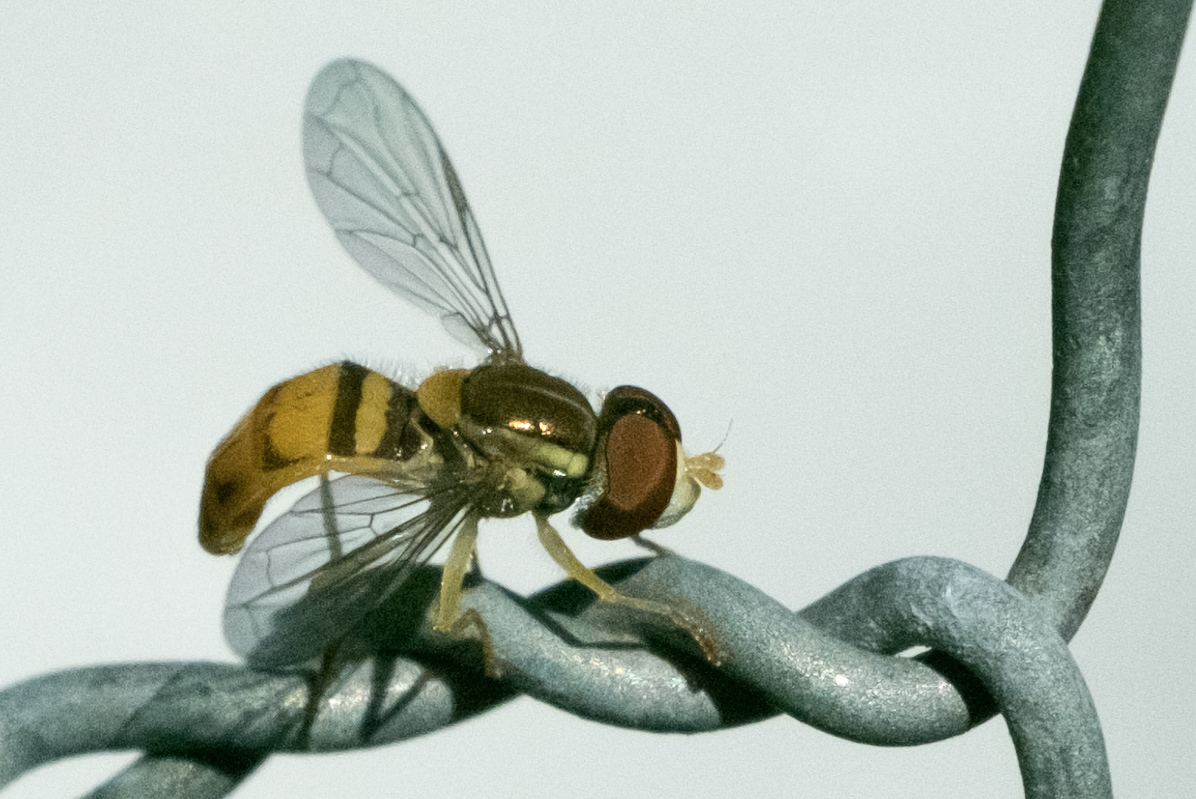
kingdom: Animalia
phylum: Arthropoda
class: Insecta
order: Diptera
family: Syrphidae
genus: Toxomerus
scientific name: Toxomerus marginatus
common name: Syrphid fly
